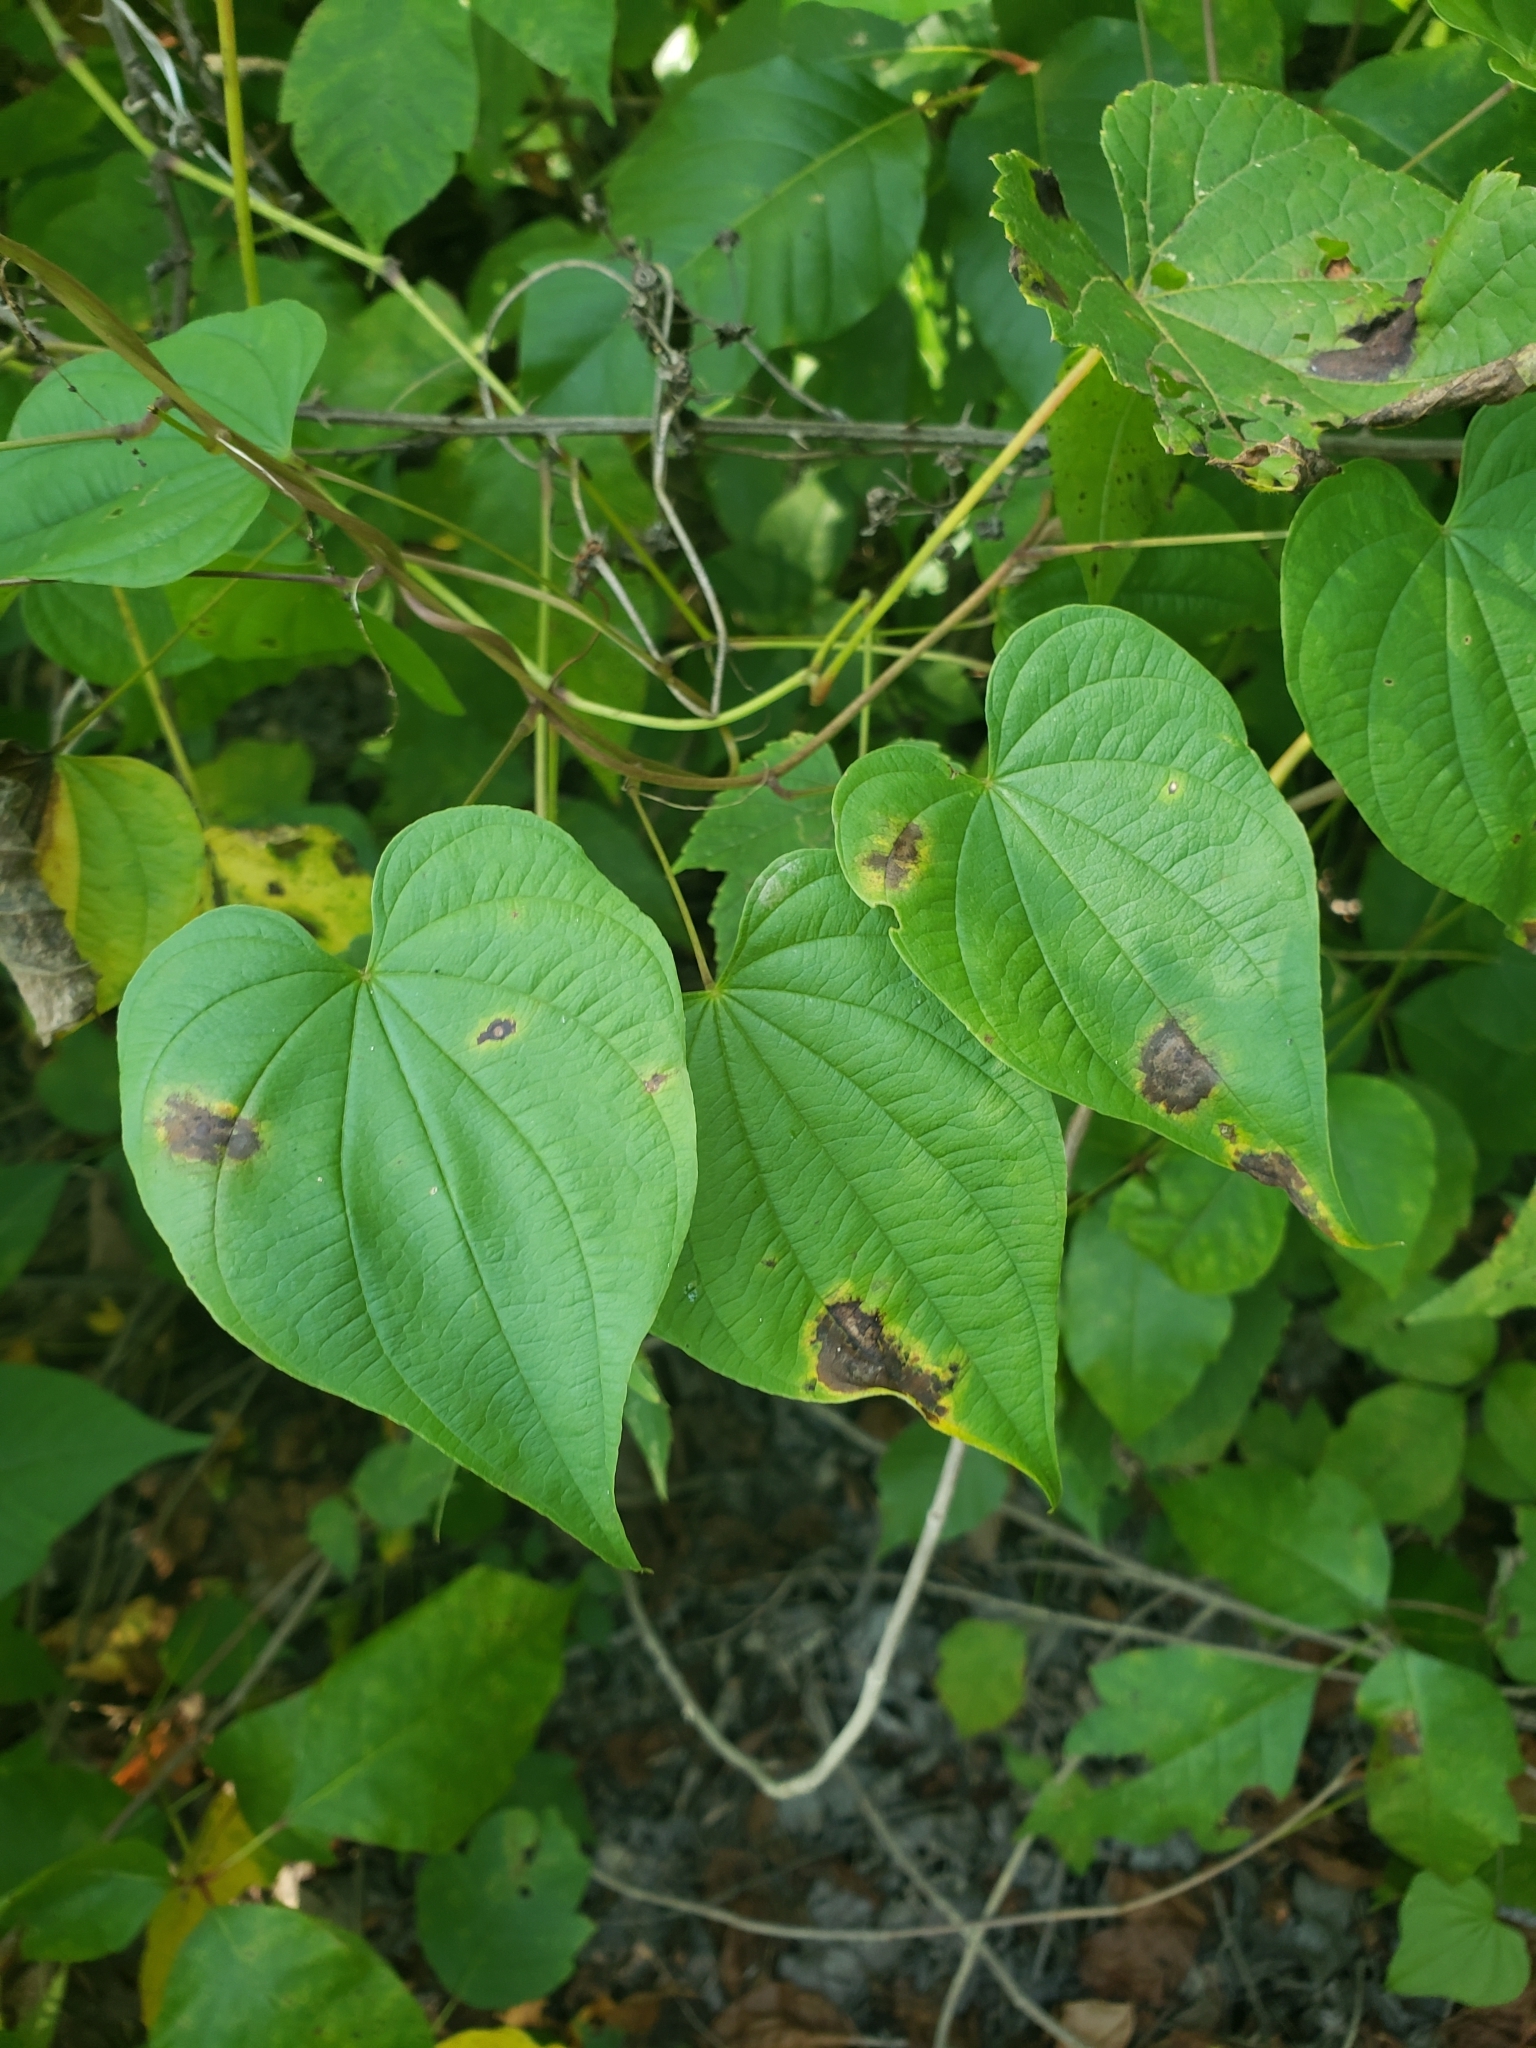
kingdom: Plantae
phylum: Tracheophyta
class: Liliopsida
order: Dioscoreales
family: Dioscoreaceae
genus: Dioscorea
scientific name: Dioscorea villosa
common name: Wild yam
